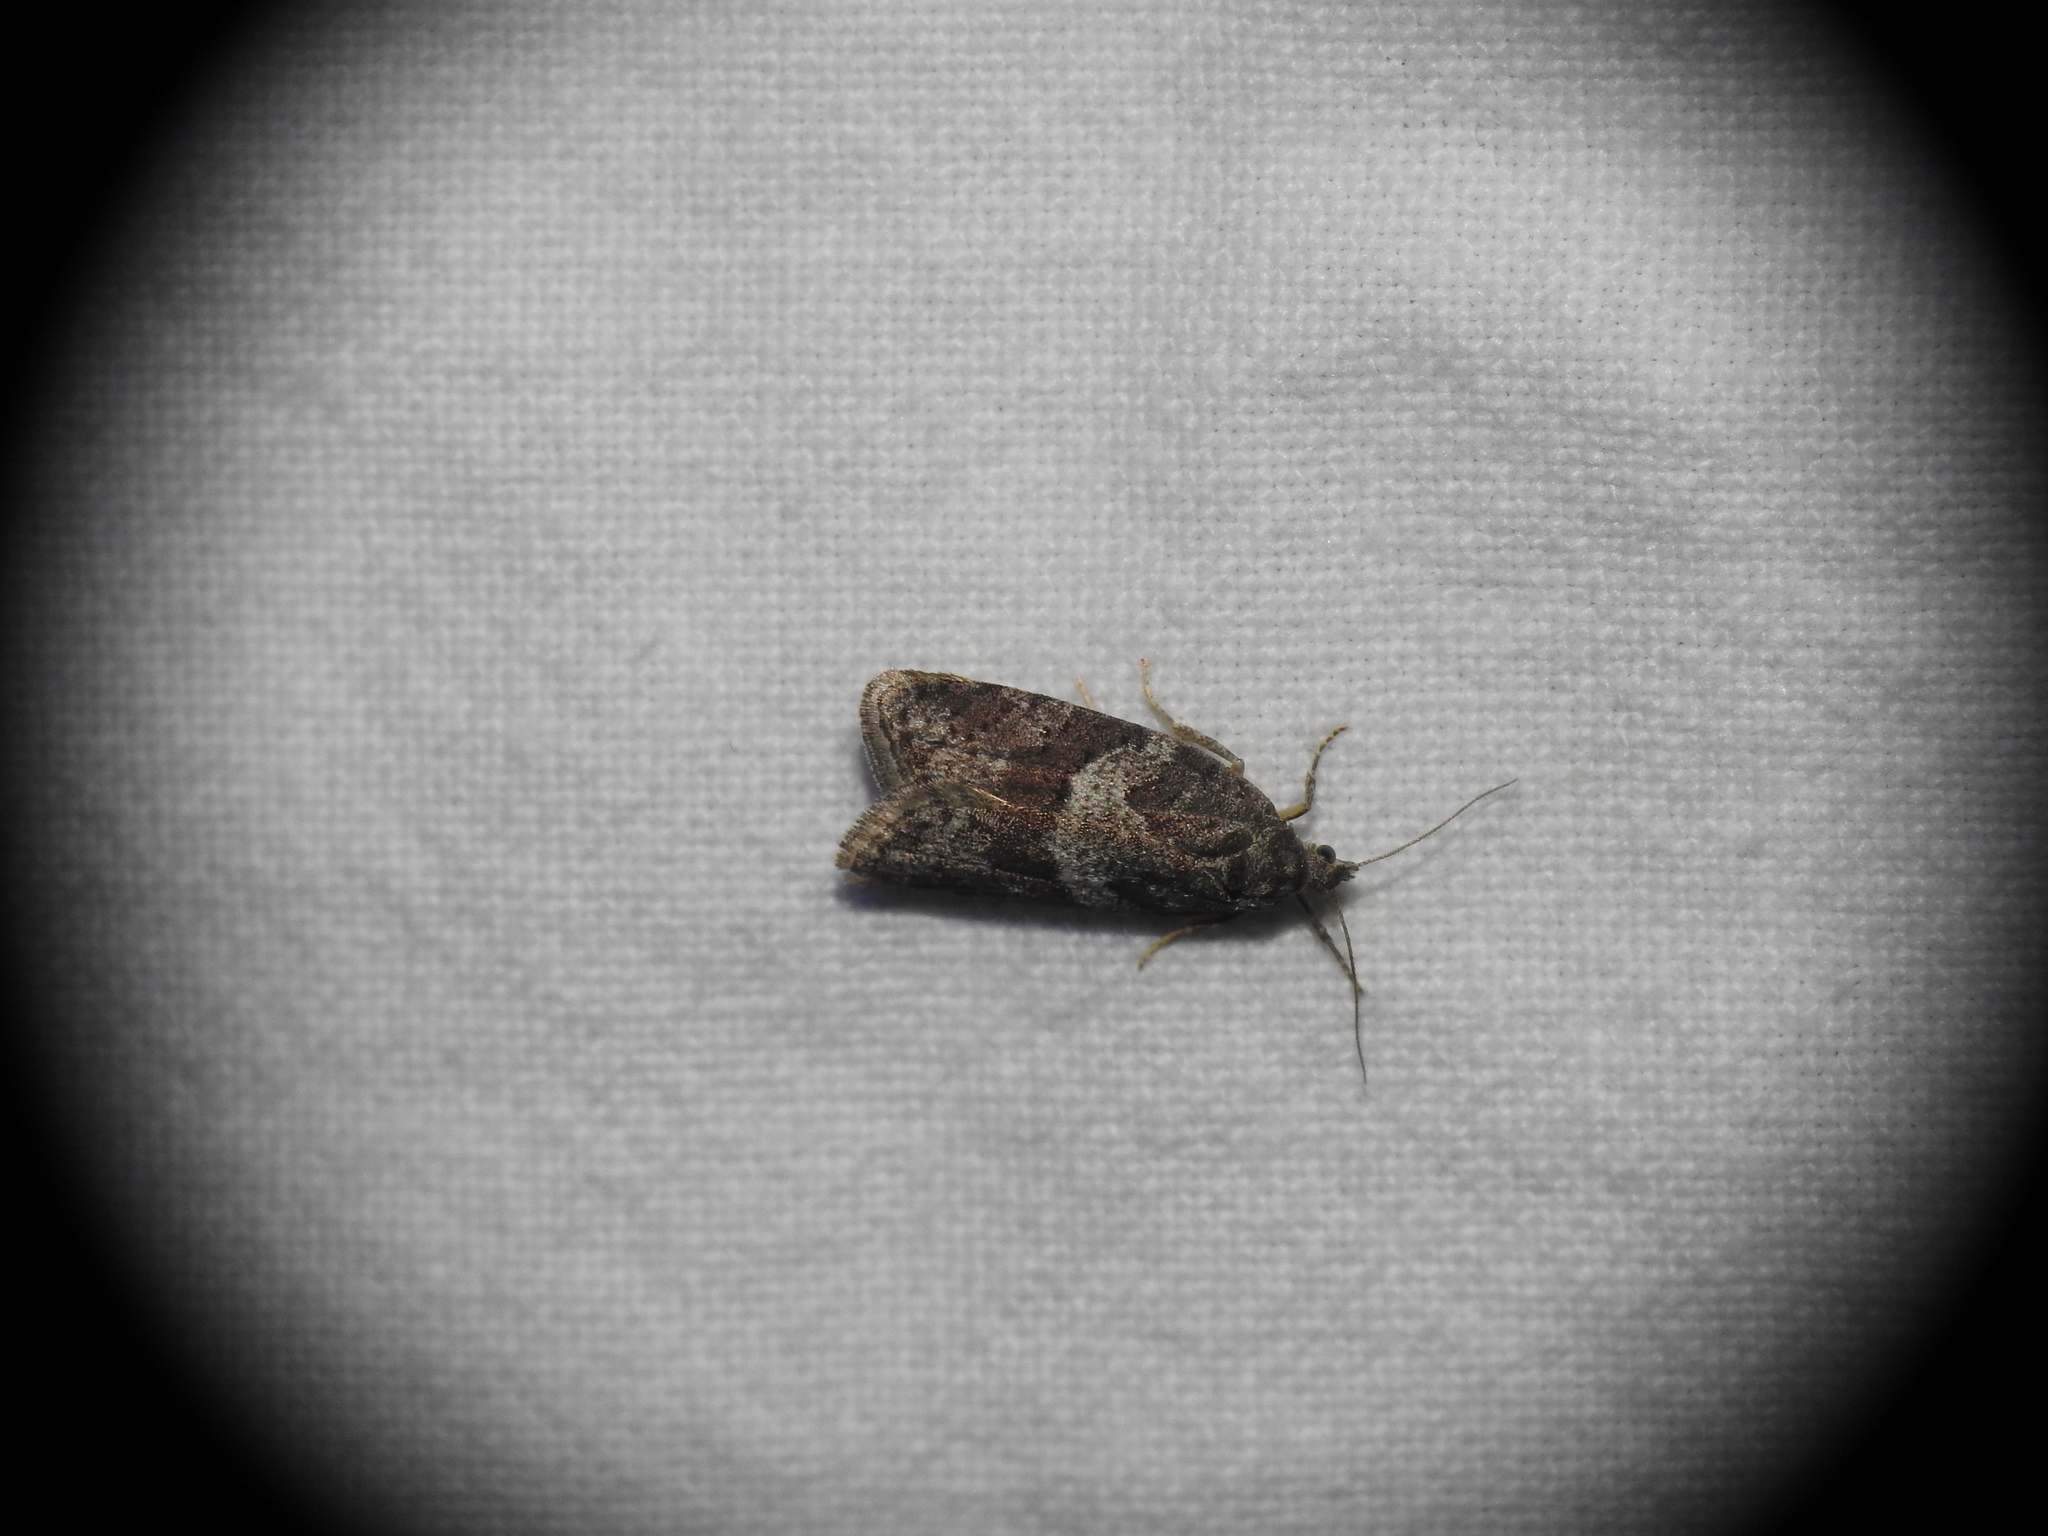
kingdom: Animalia
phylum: Arthropoda
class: Insecta
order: Lepidoptera
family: Tortricidae
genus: Syndemis
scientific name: Syndemis musculana
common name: Dark-barred twist
